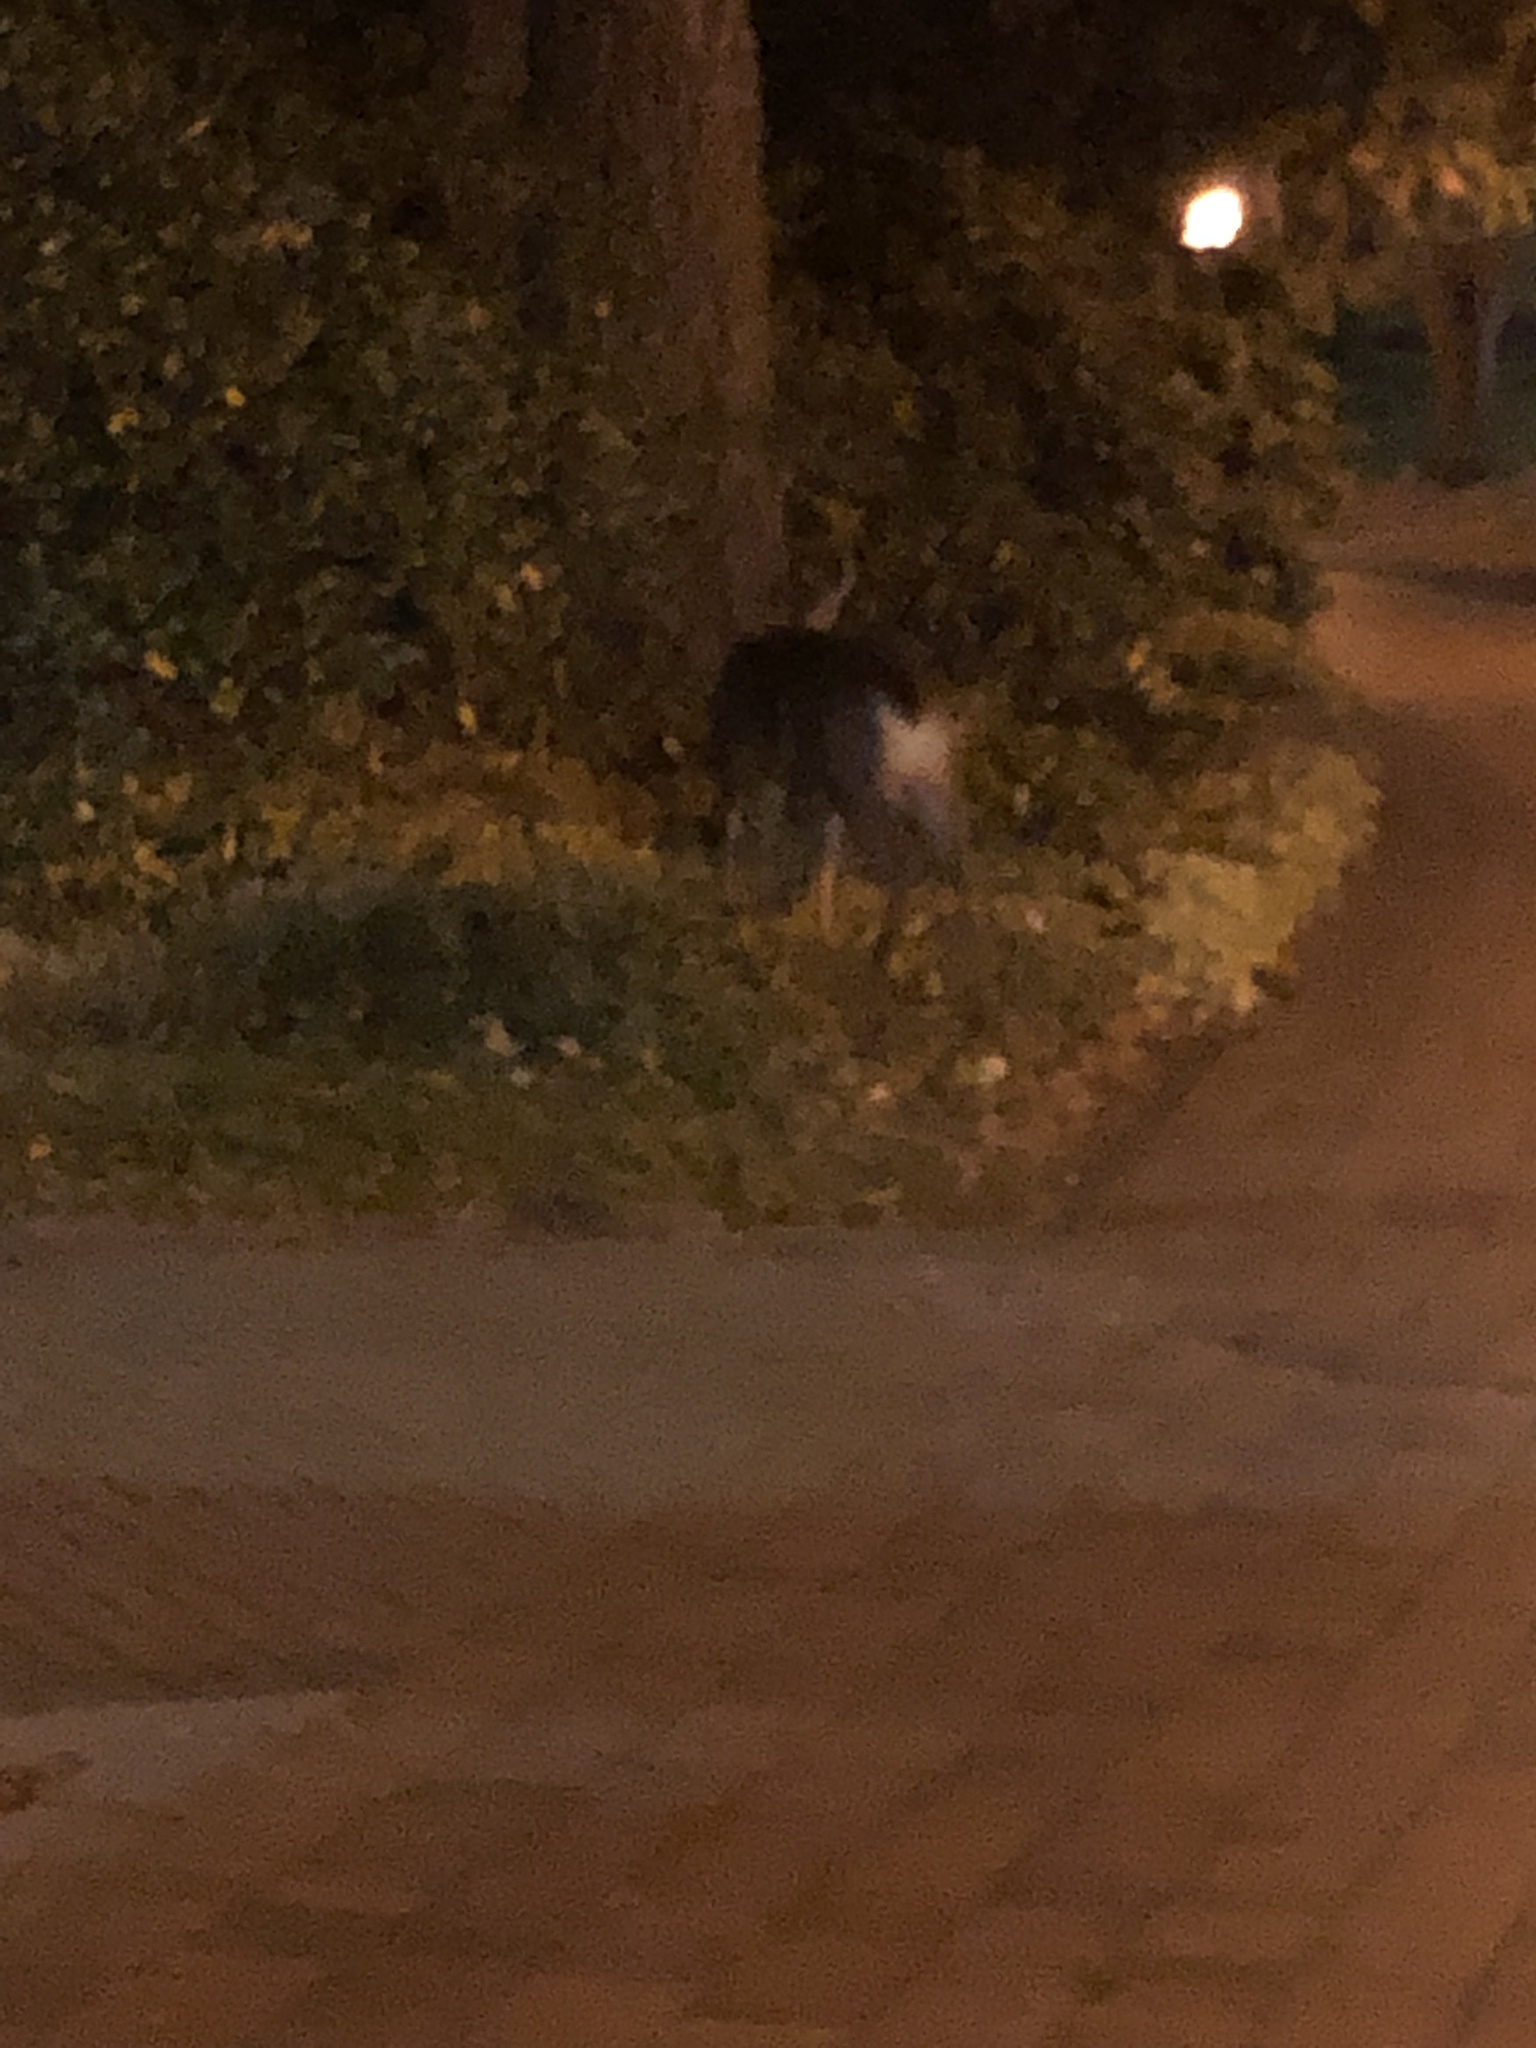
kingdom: Animalia
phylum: Chordata
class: Mammalia
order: Artiodactyla
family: Cervidae
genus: Odocoileus
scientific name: Odocoileus hemionus
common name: Mule deer
